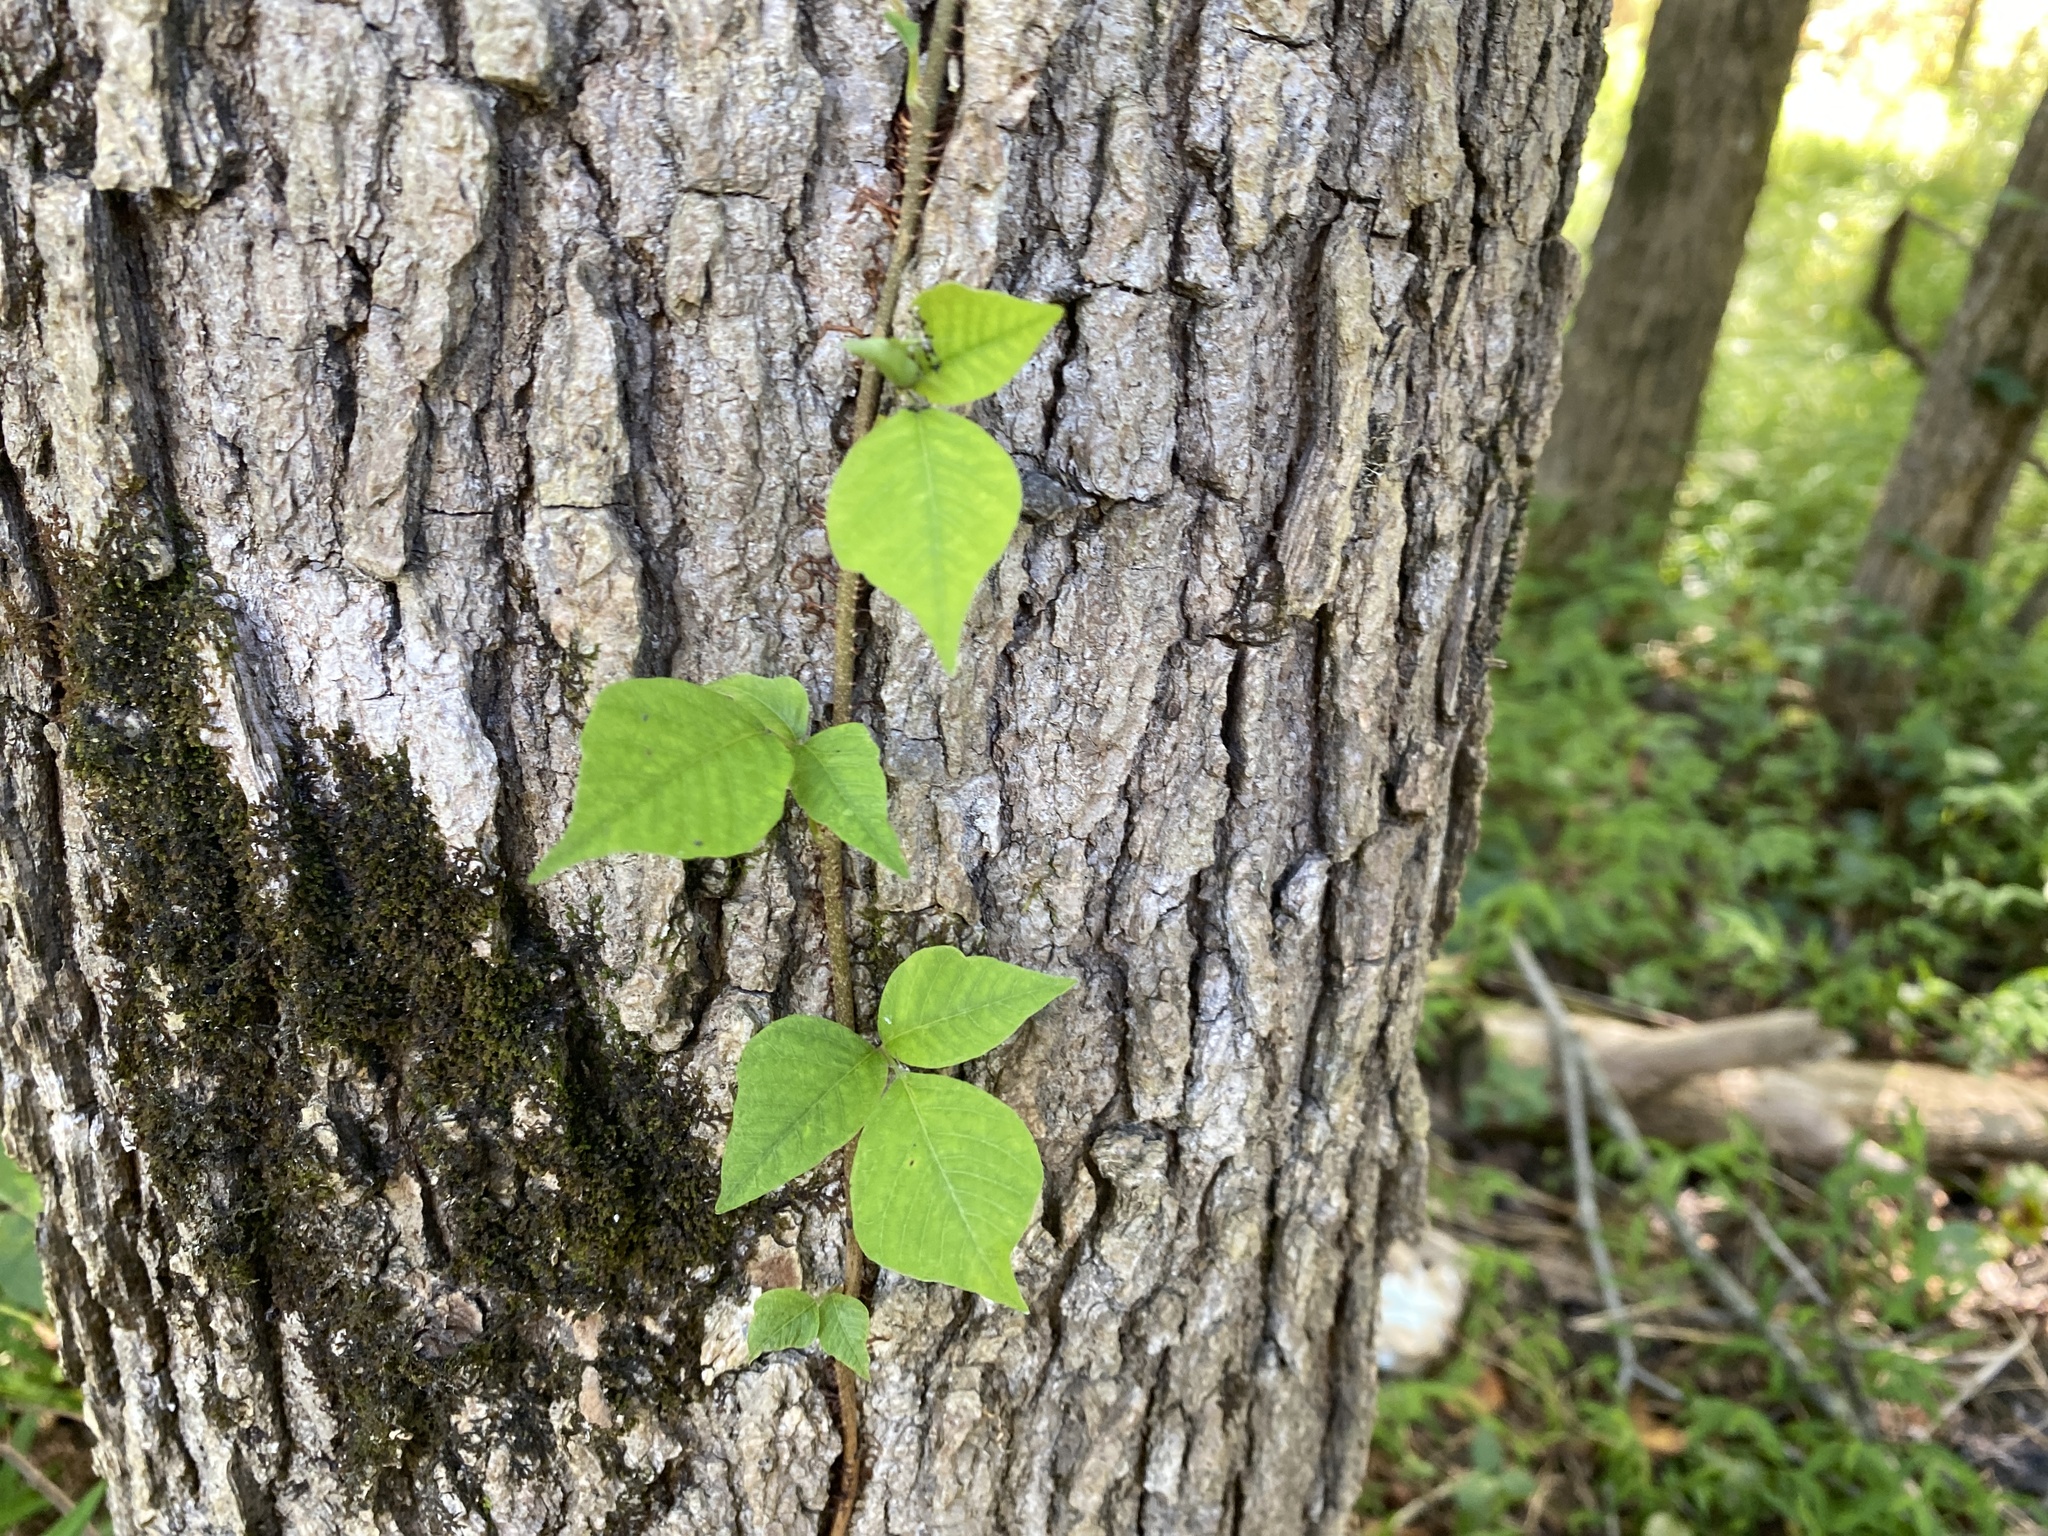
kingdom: Plantae
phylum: Tracheophyta
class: Magnoliopsida
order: Sapindales
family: Anacardiaceae
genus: Toxicodendron
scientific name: Toxicodendron radicans
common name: Poison ivy
